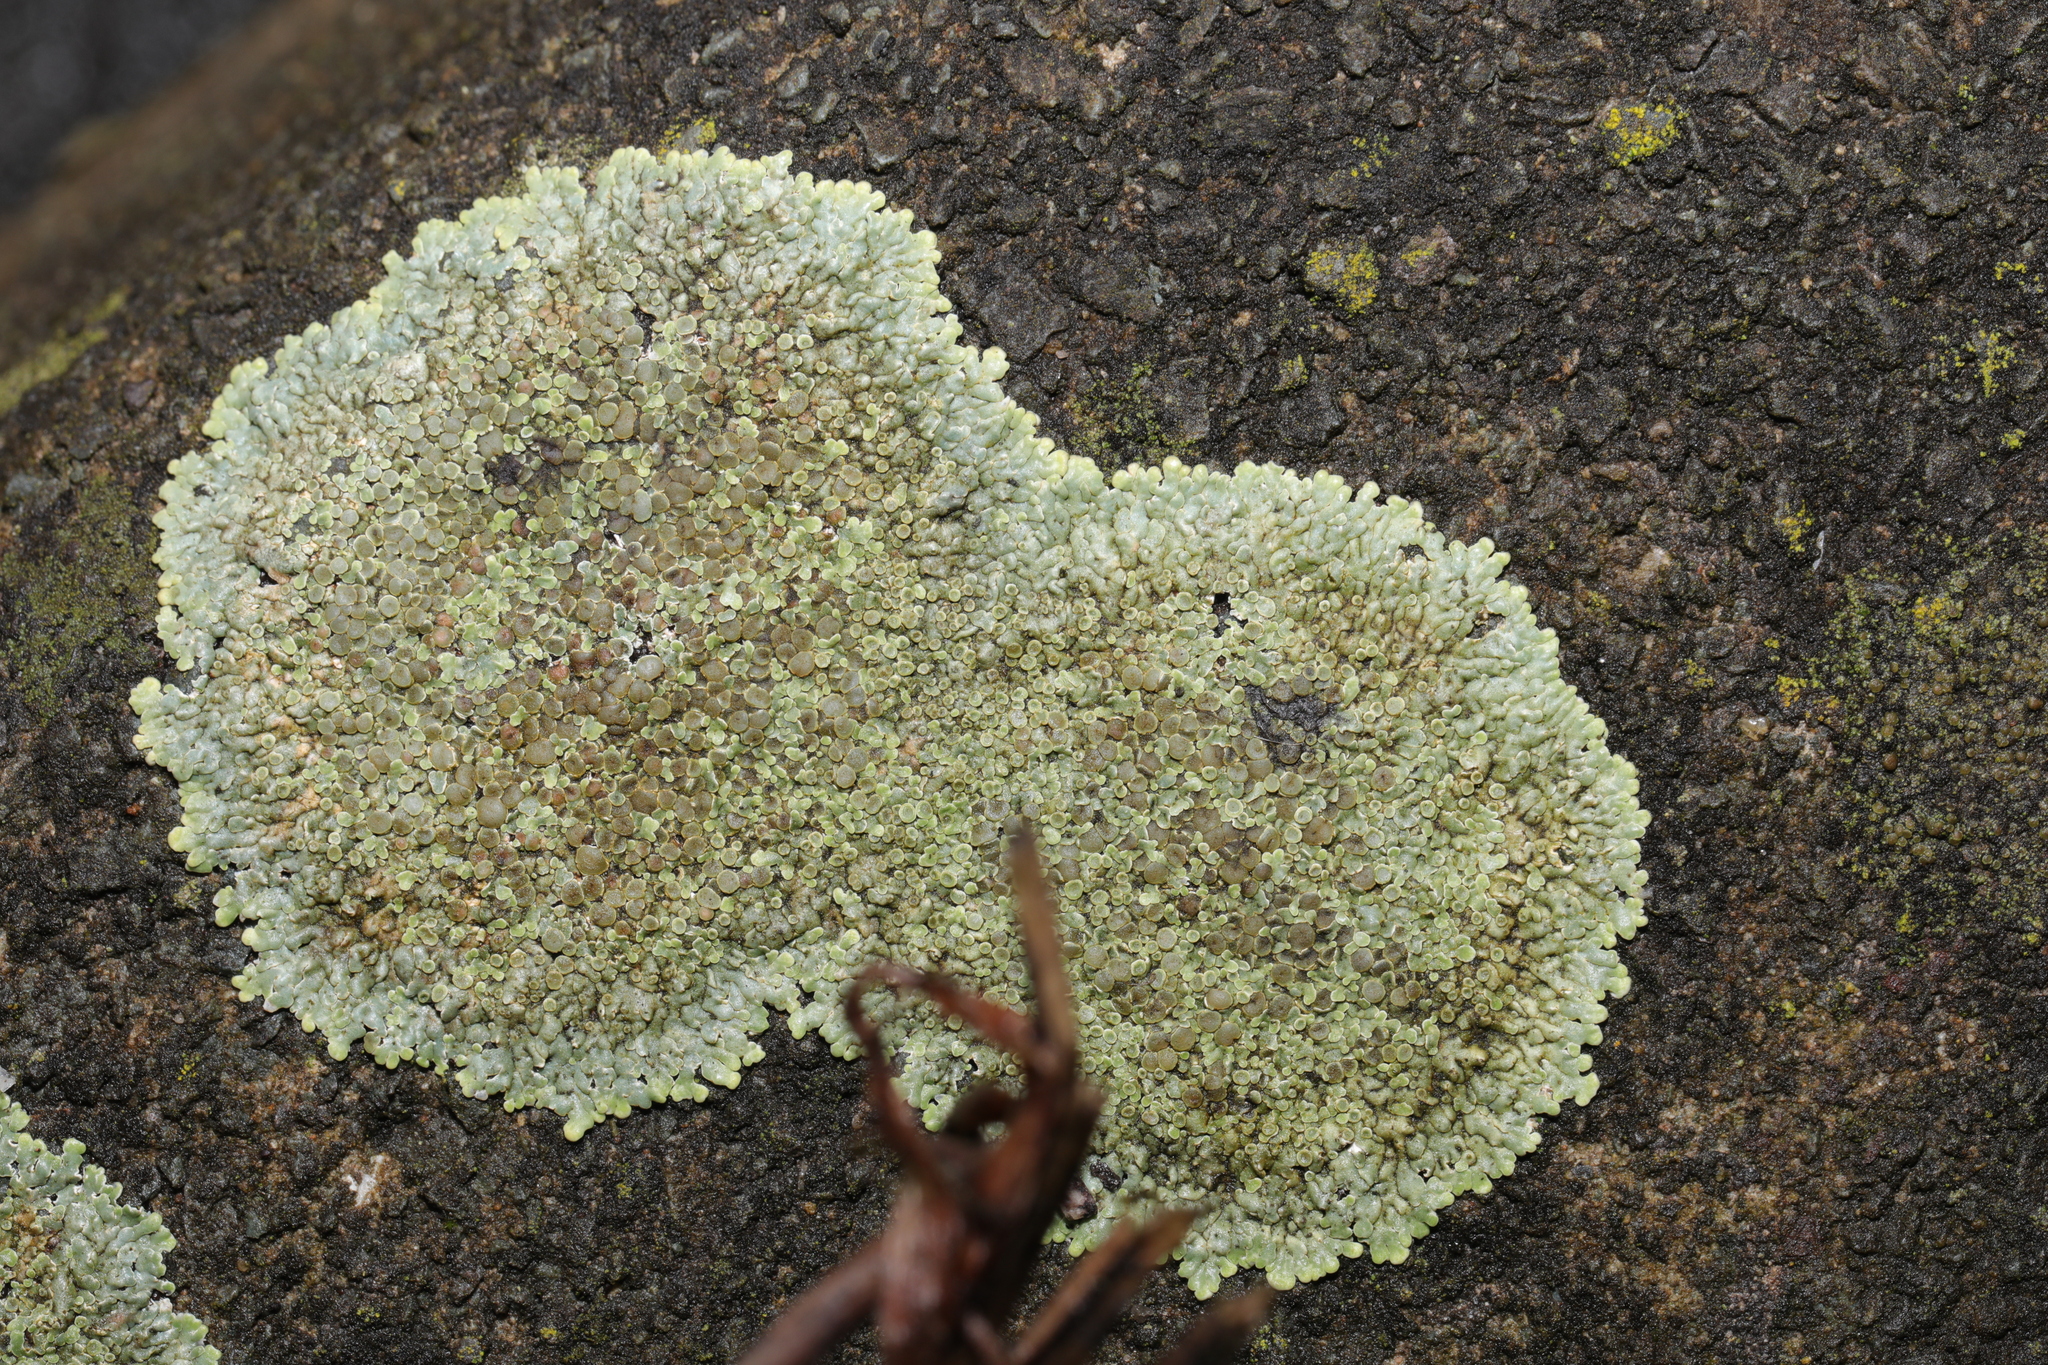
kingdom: Fungi
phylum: Ascomycota
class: Lecanoromycetes
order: Lecanorales
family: Lecanoraceae
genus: Protoparmeliopsis
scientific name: Protoparmeliopsis muralis
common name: Stonewall rim lichen
